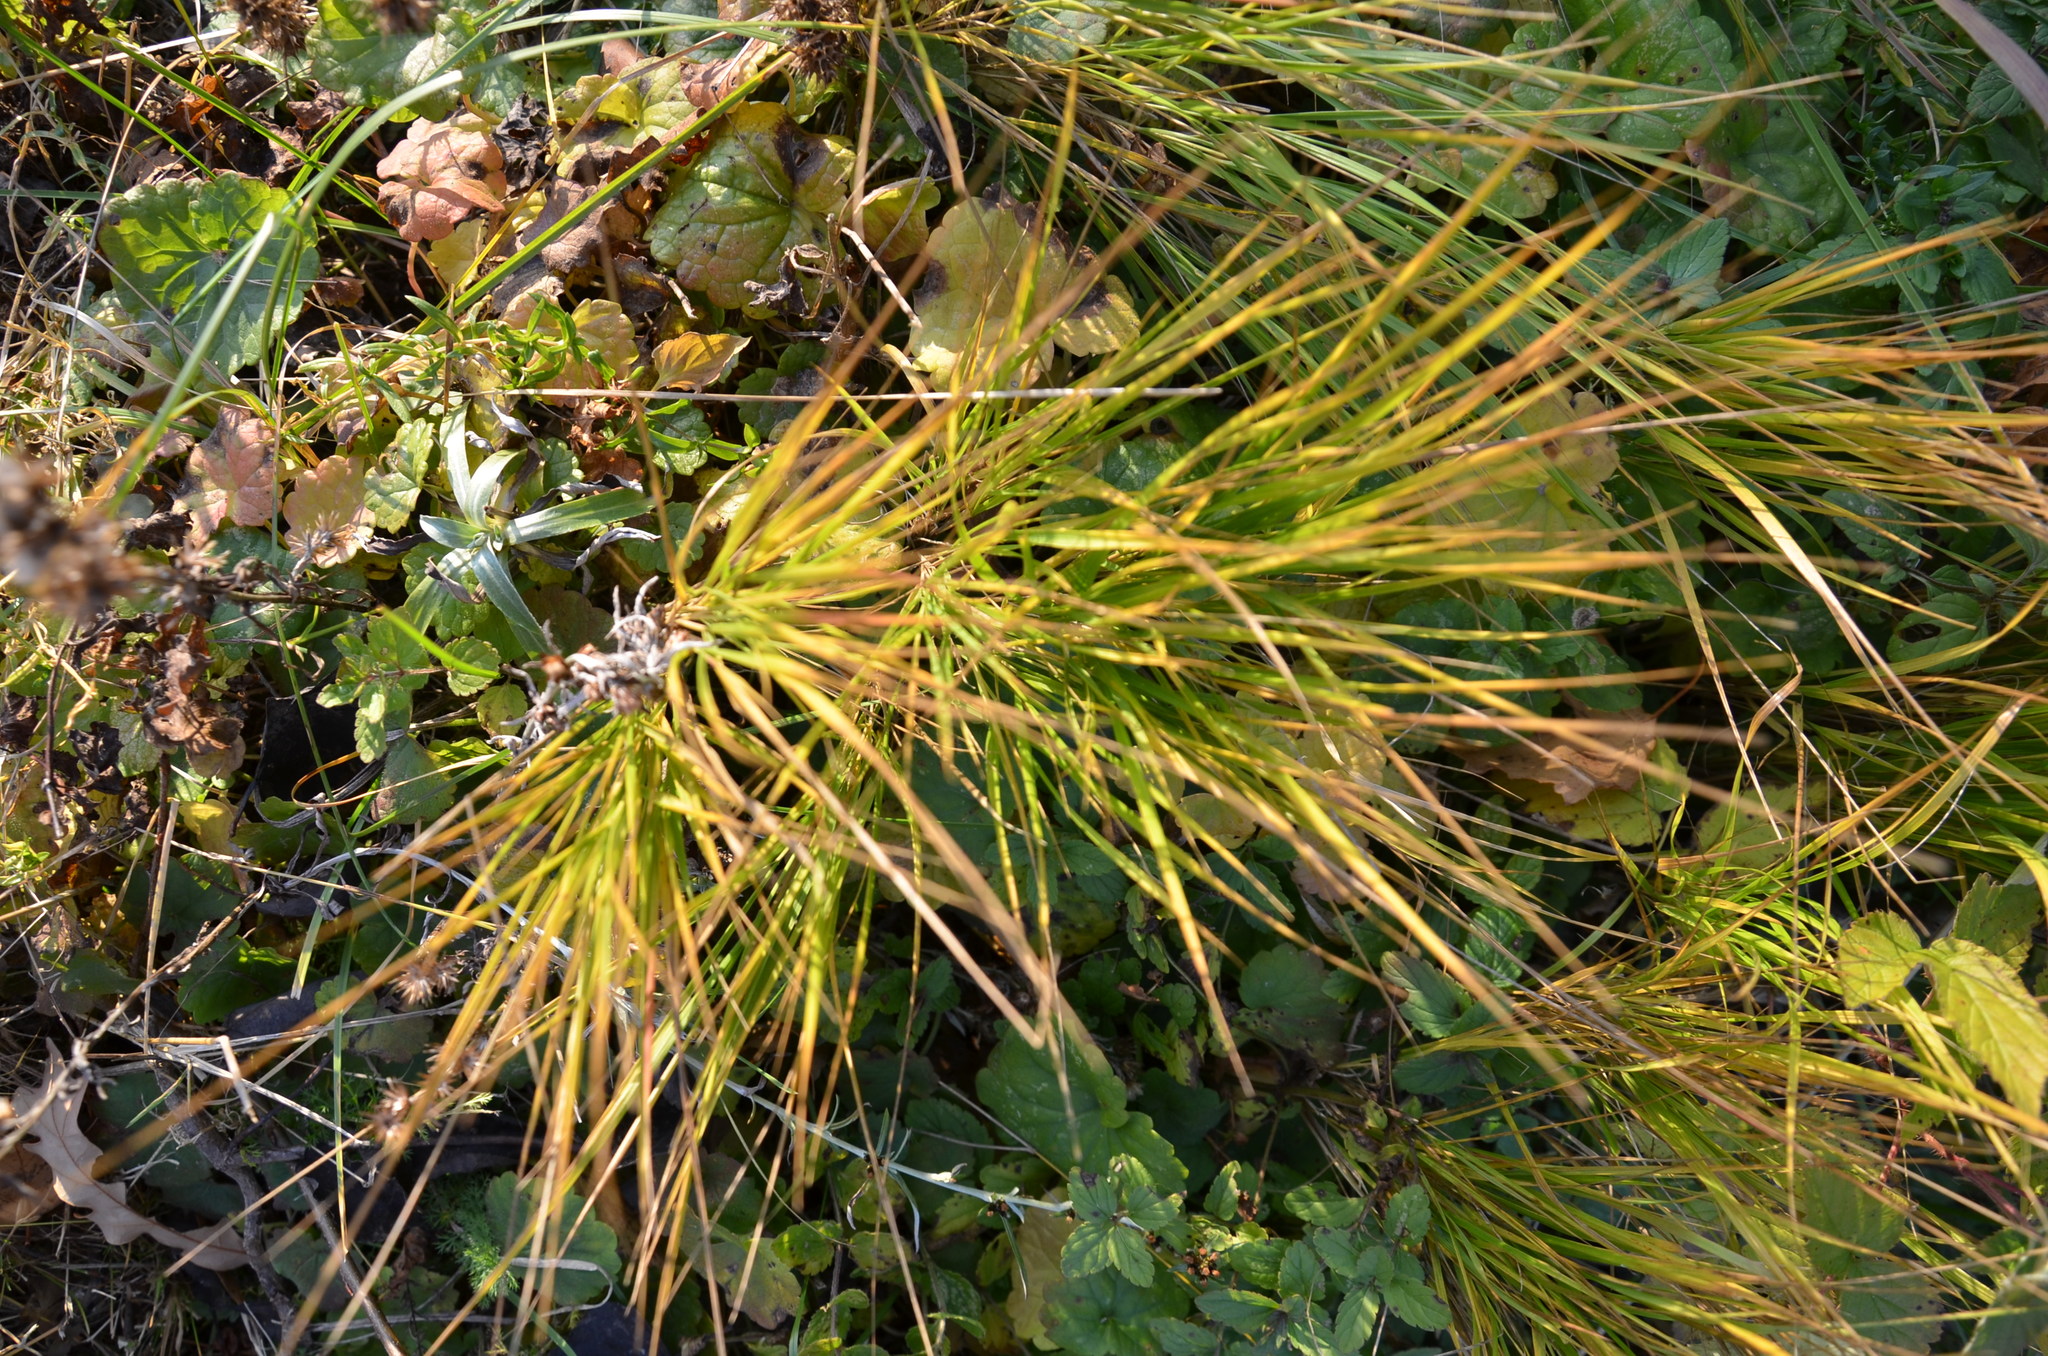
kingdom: Plantae
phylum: Tracheophyta
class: Liliopsida
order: Poales
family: Poaceae
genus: Calamagrostis
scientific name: Calamagrostis canescens
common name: Purple small-reed
